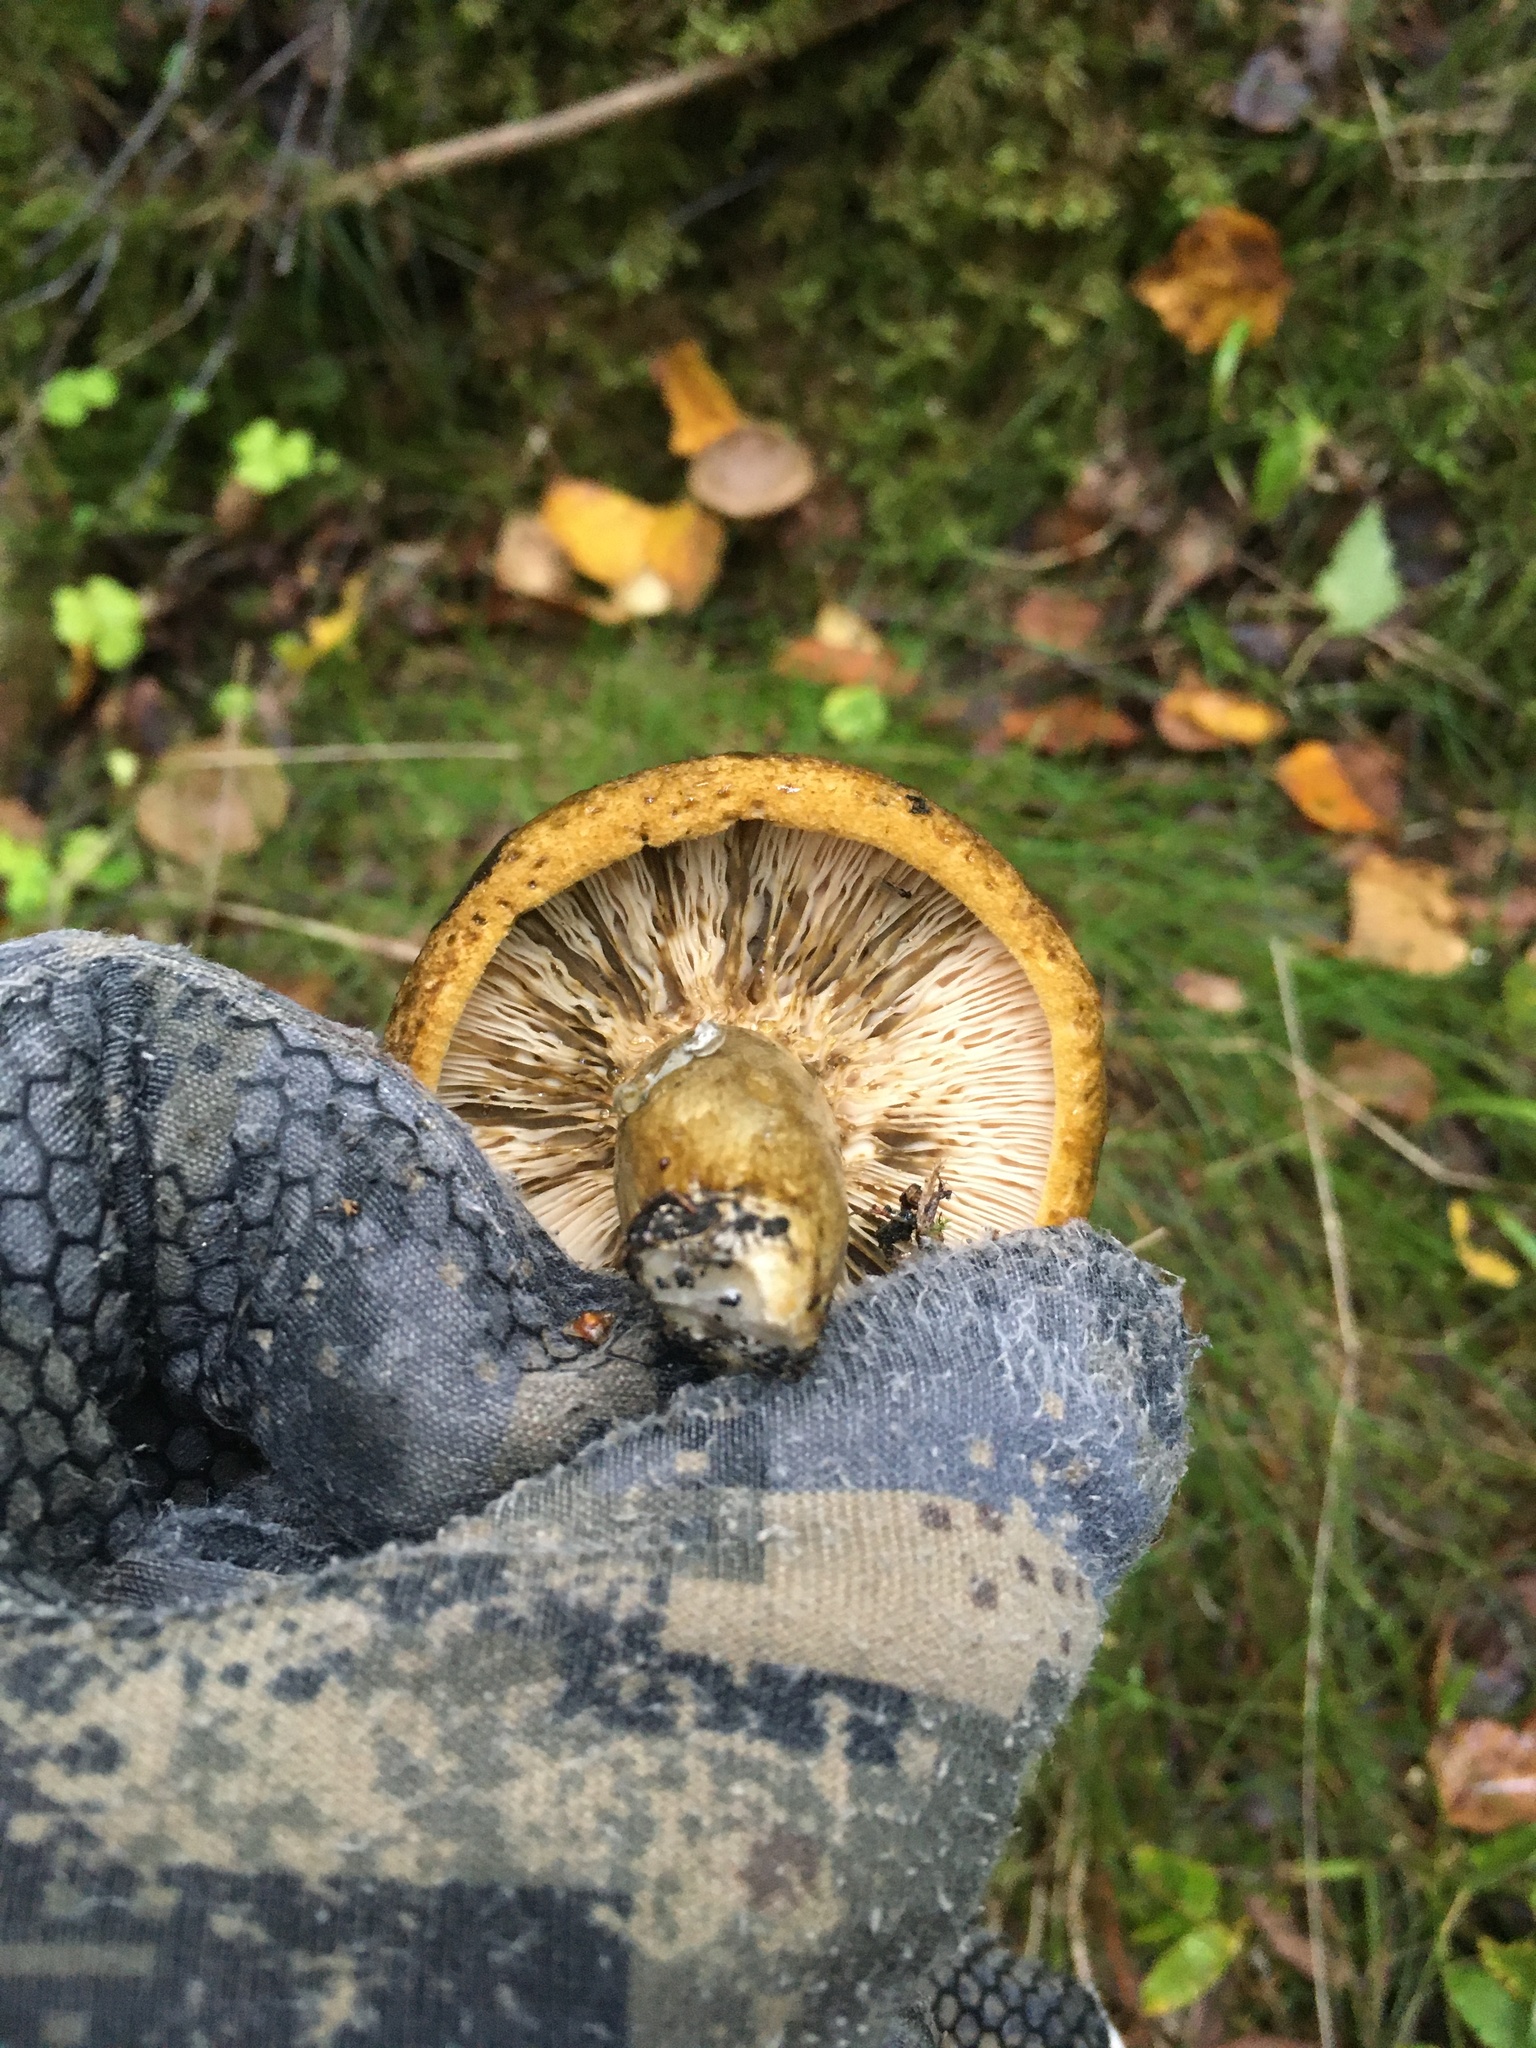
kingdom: Fungi
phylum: Basidiomycota
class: Agaricomycetes
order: Russulales
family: Russulaceae
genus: Lactarius
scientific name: Lactarius turpis
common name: Ugly milk-cap
